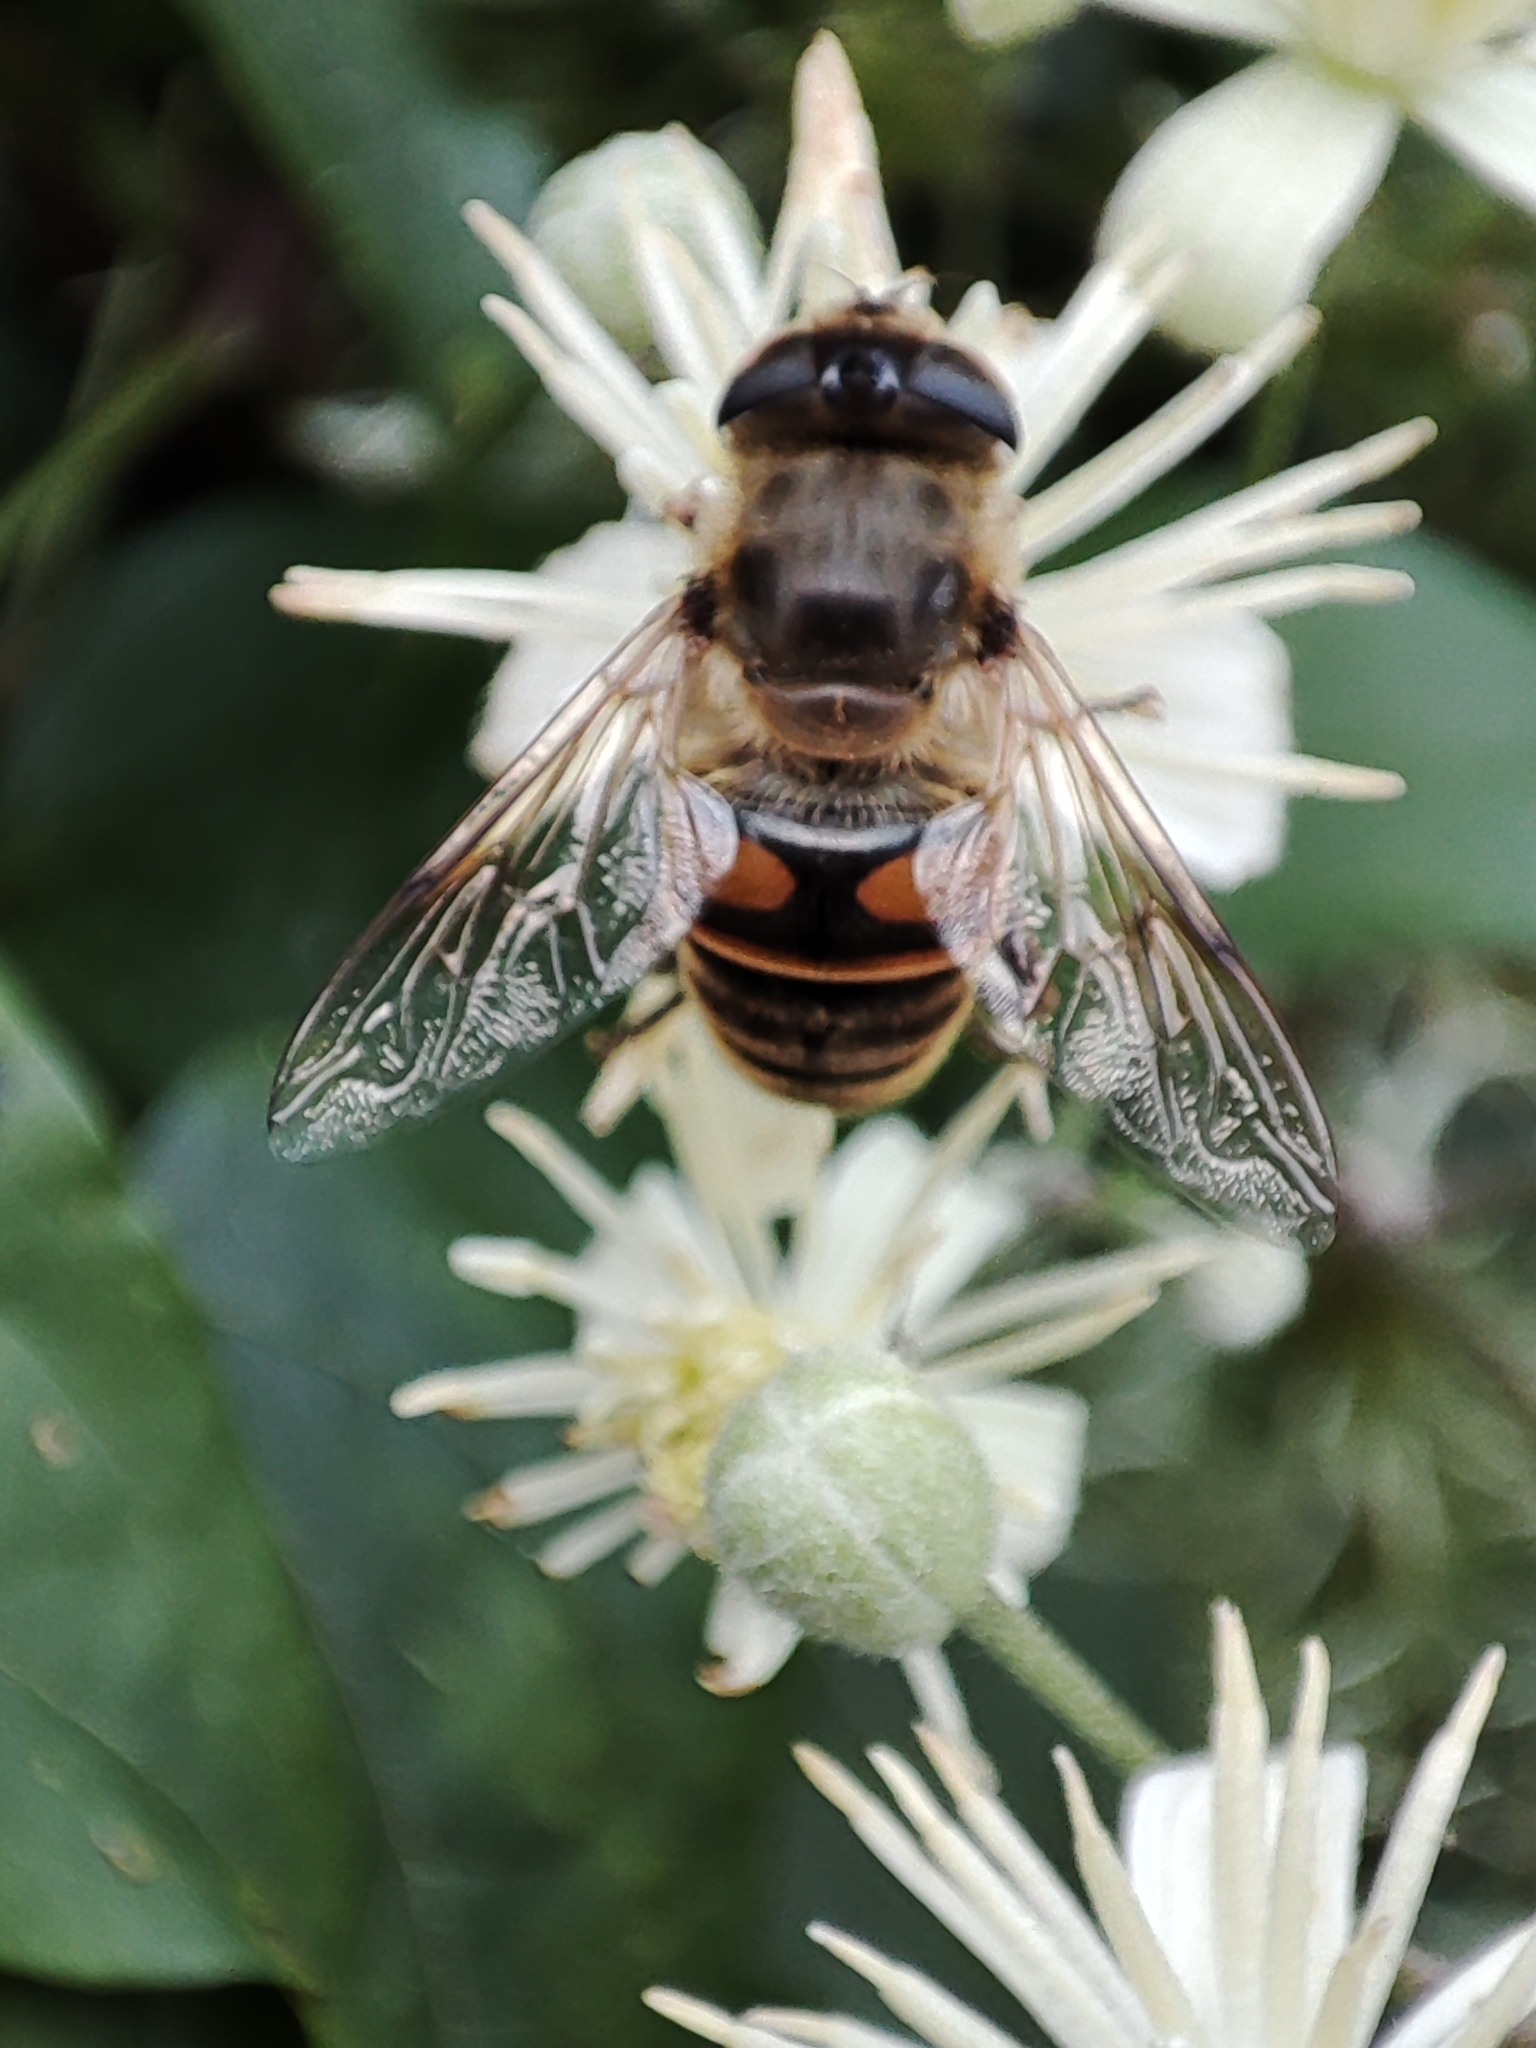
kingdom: Animalia
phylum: Arthropoda
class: Insecta
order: Diptera
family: Syrphidae
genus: Eristalis
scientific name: Eristalis tenax
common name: Drone fly
